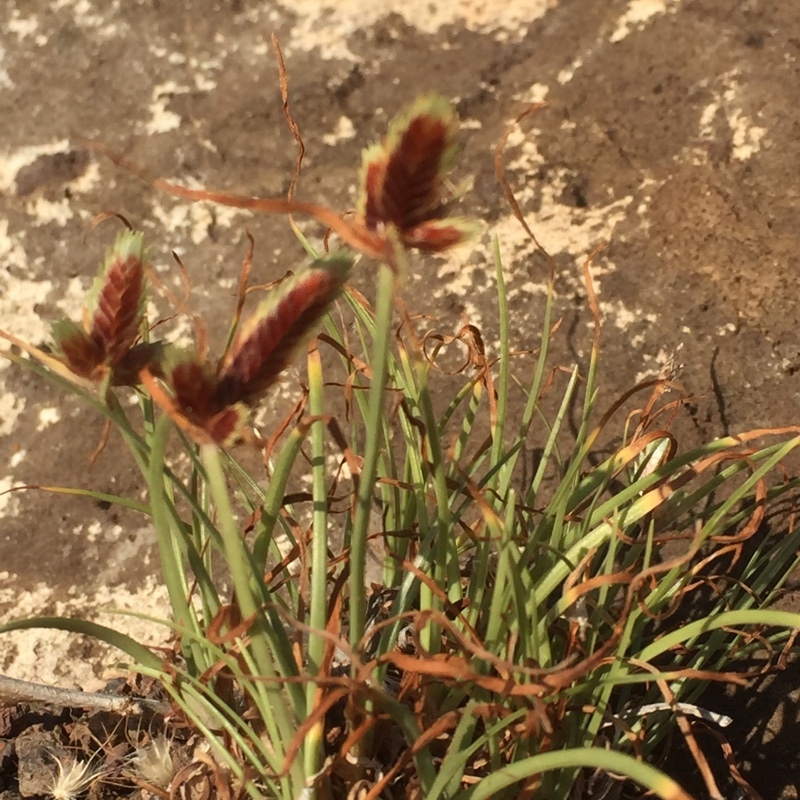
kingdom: Plantae
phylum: Tracheophyta
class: Liliopsida
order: Poales
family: Cyperaceae
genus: Cyperus
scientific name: Cyperus rubicundus
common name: Coco-grass
